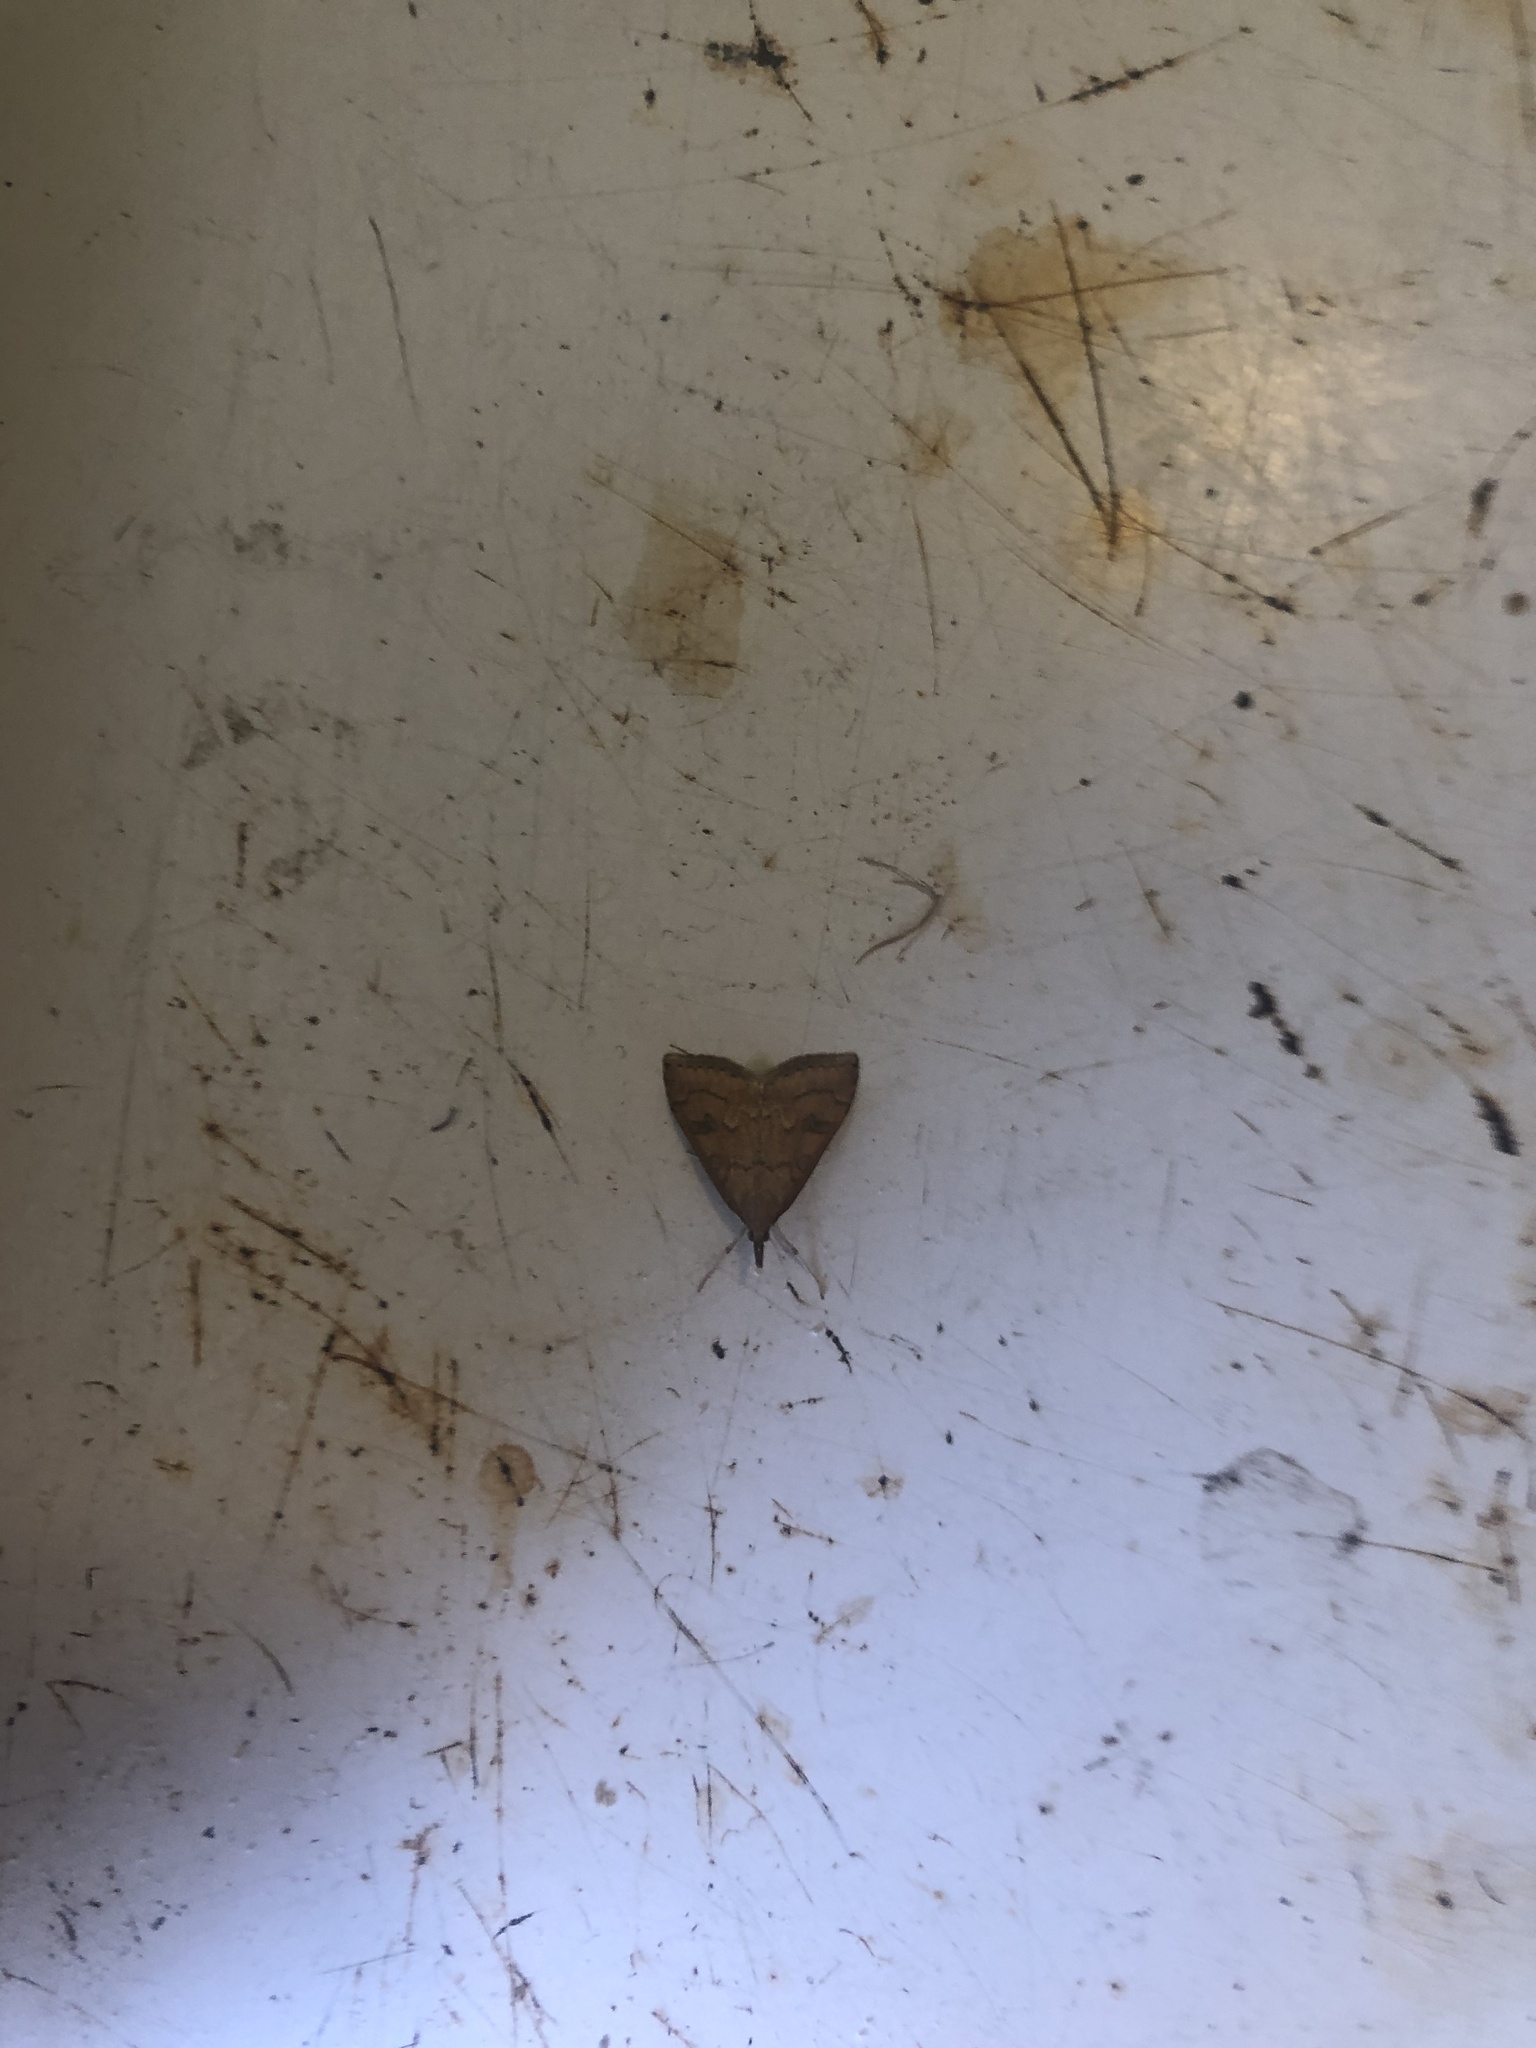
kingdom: Animalia
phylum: Arthropoda
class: Insecta
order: Lepidoptera
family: Crambidae
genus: Udea
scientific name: Udea profundalis
